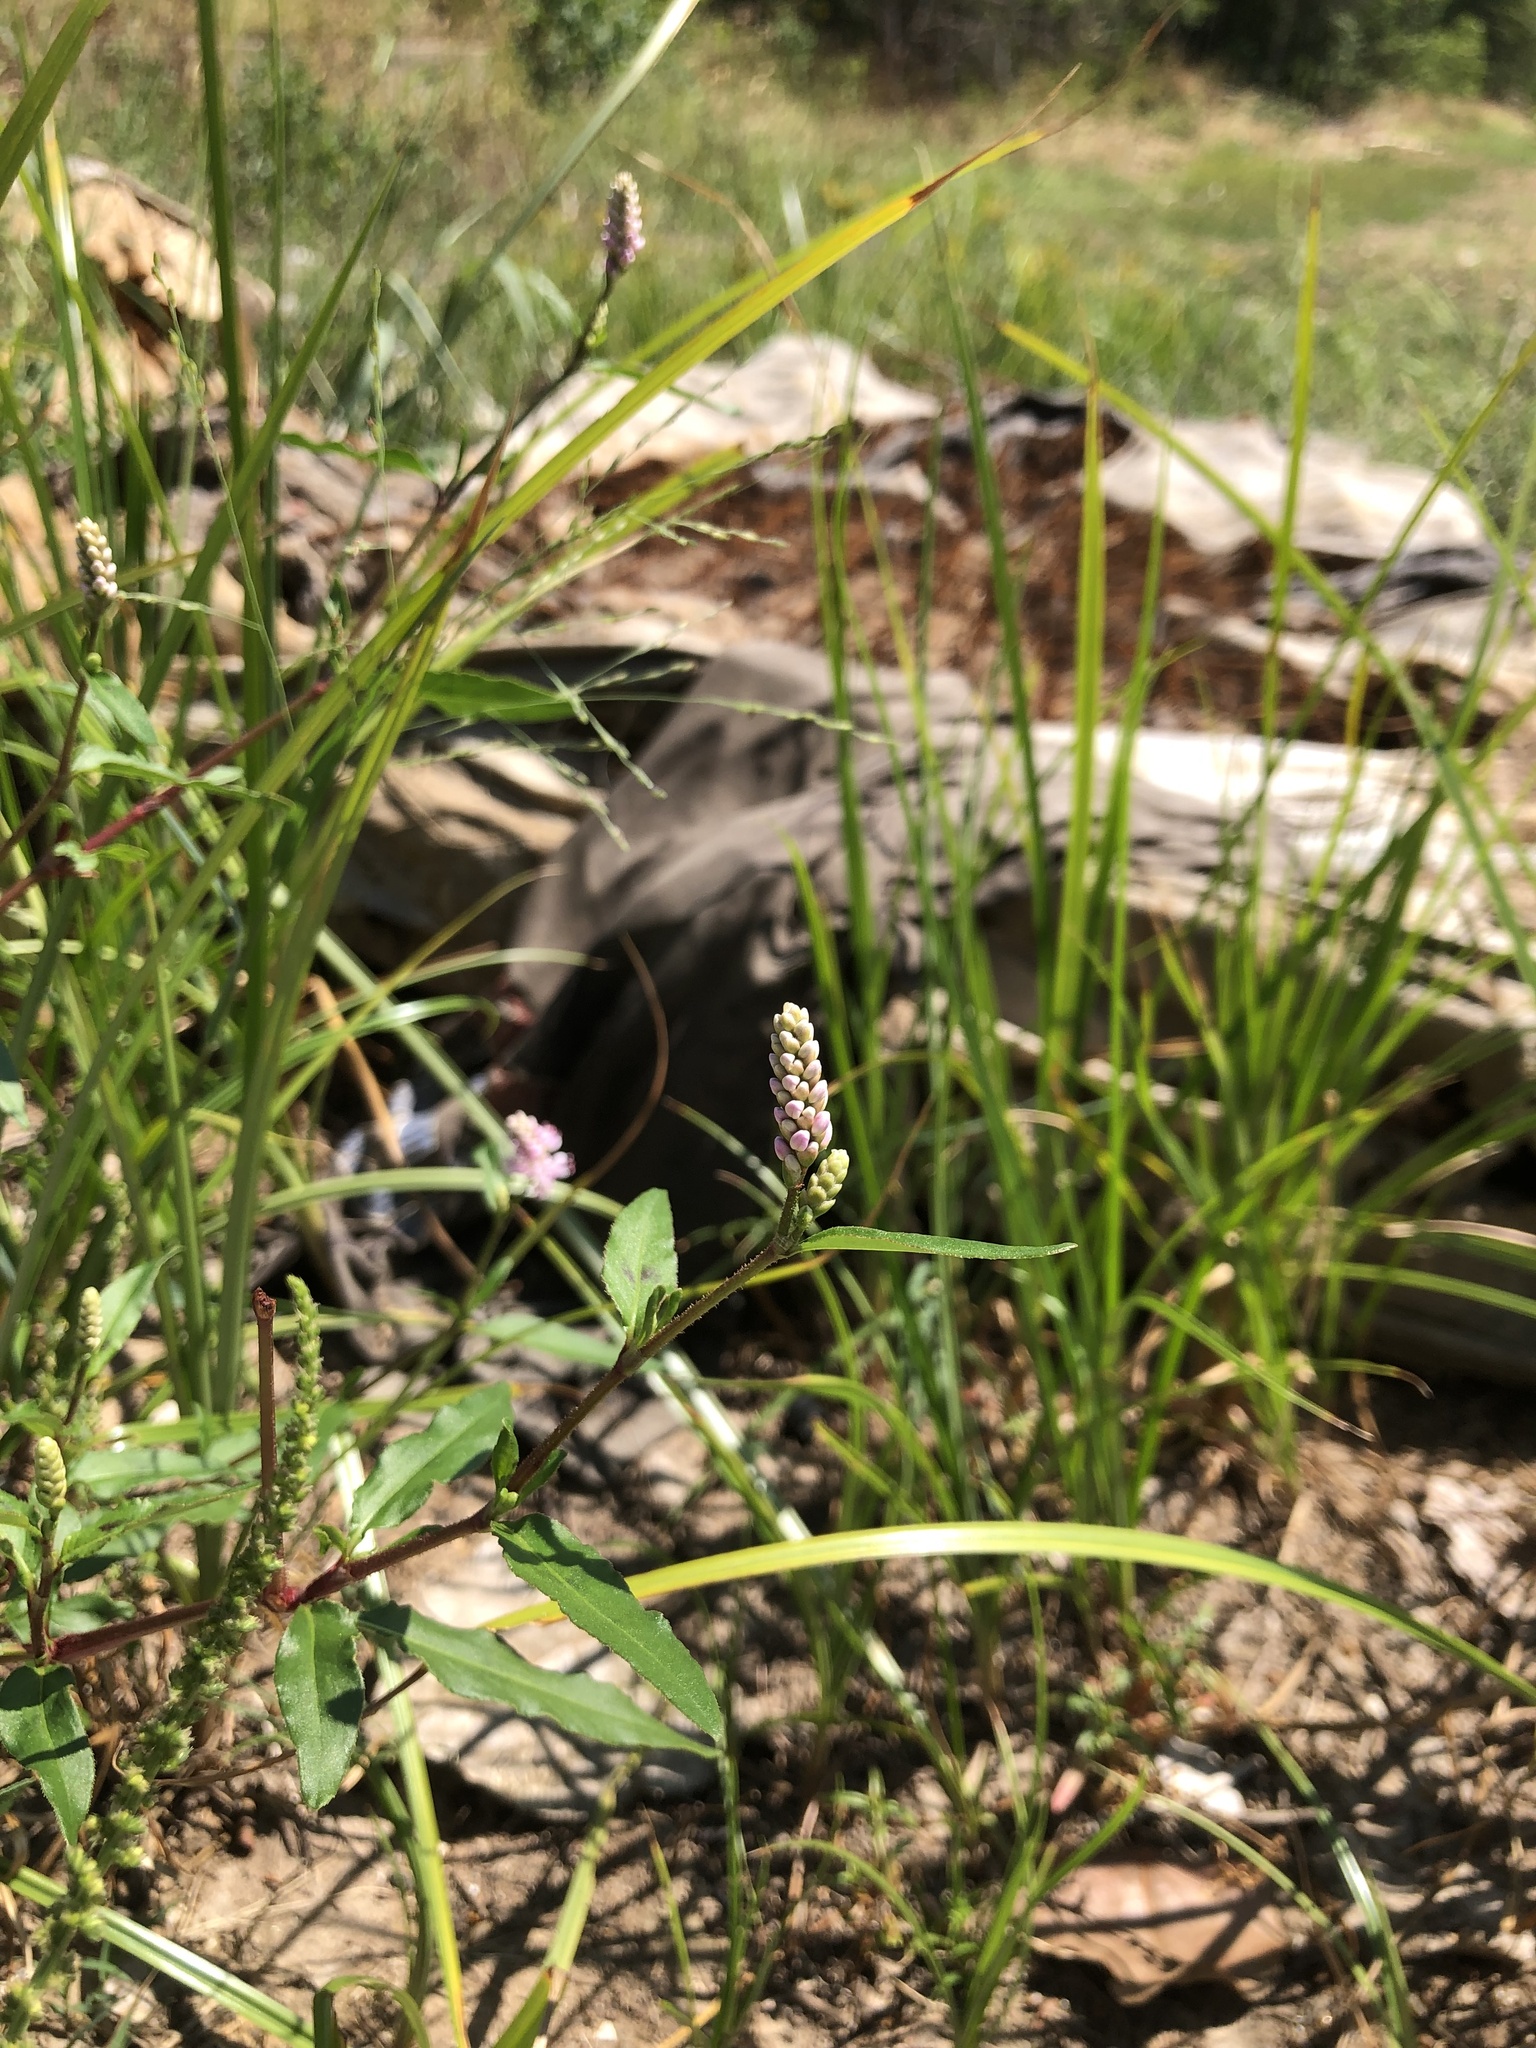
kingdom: Plantae
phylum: Tracheophyta
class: Magnoliopsida
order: Caryophyllales
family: Polygonaceae
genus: Persicaria
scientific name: Persicaria bicornis
